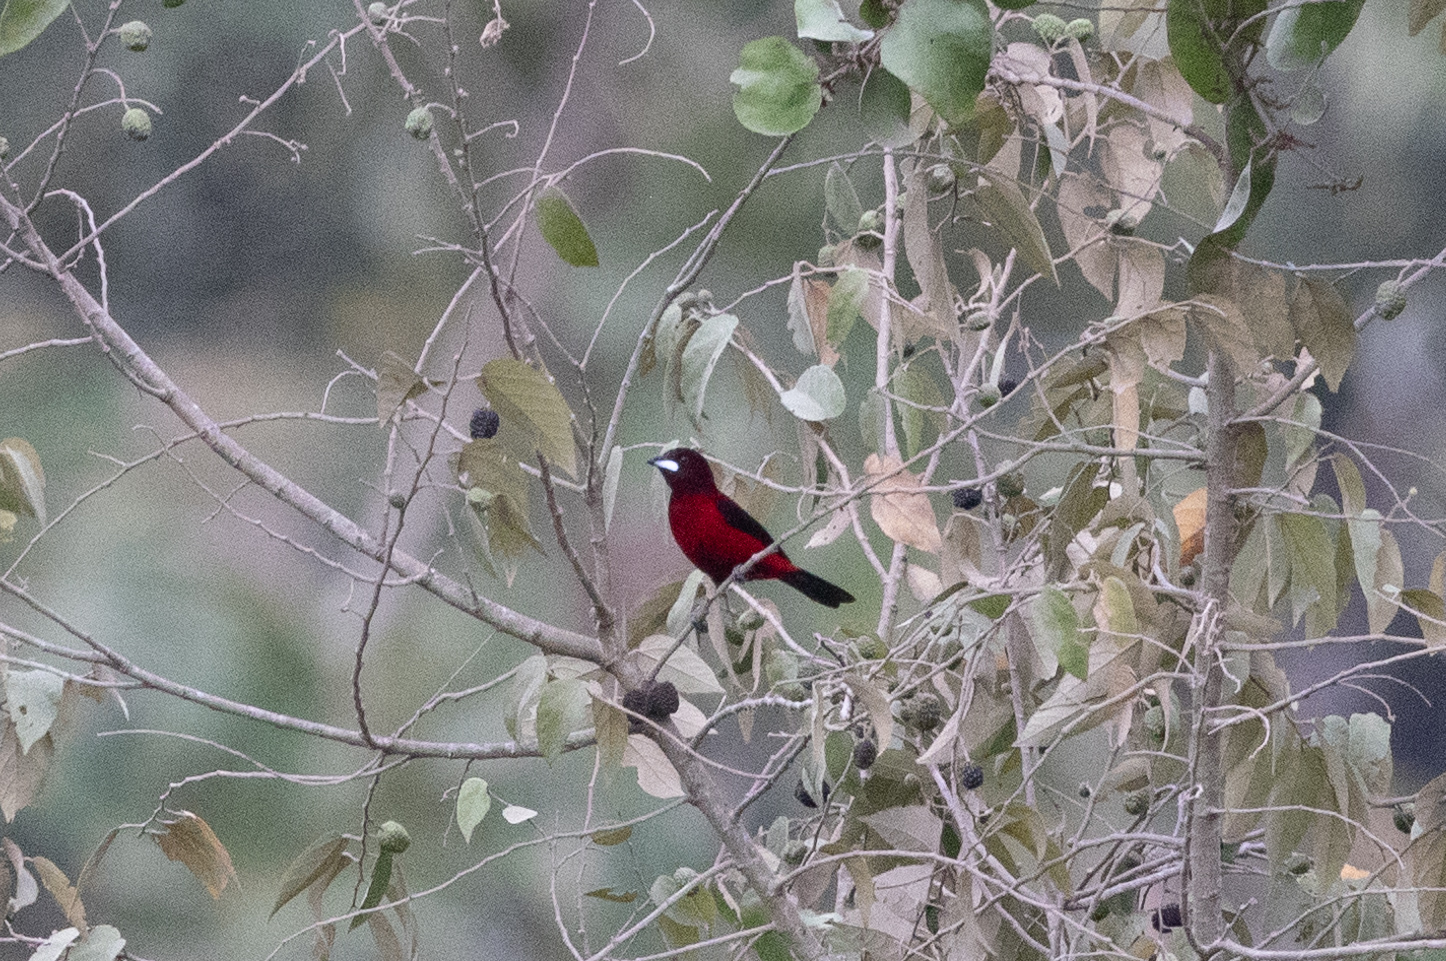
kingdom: Animalia
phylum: Chordata
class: Aves
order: Passeriformes
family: Thraupidae
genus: Ramphocelus
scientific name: Ramphocelus dimidiatus
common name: Crimson-backed tanager
